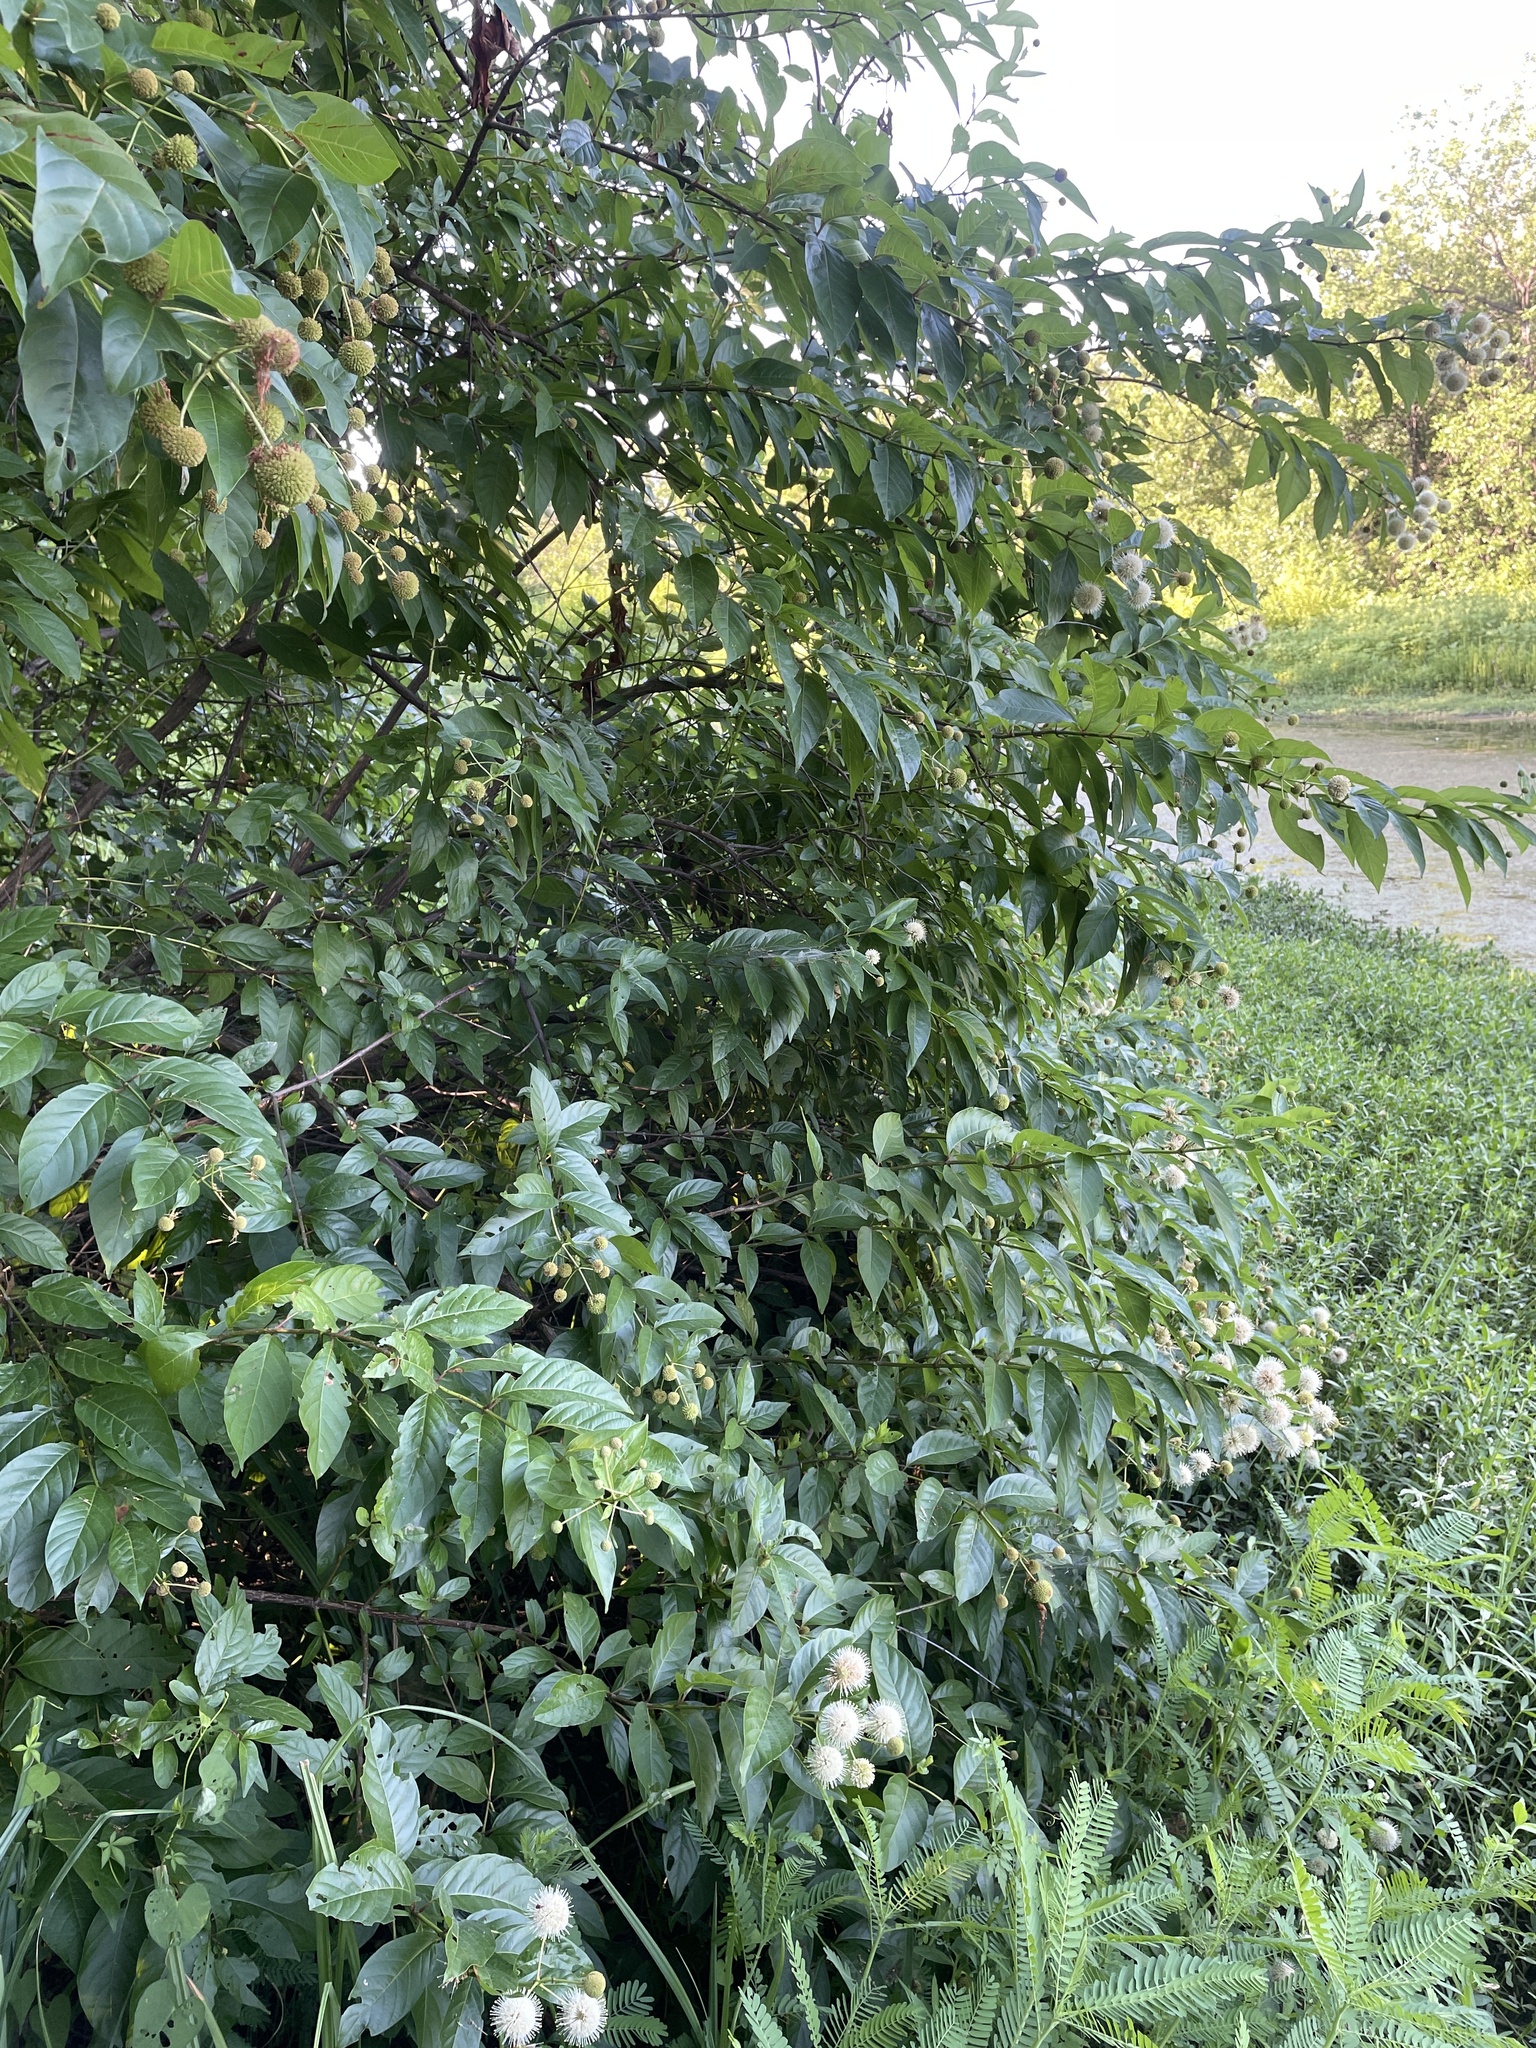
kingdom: Plantae
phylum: Tracheophyta
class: Magnoliopsida
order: Gentianales
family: Rubiaceae
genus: Cephalanthus
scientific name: Cephalanthus occidentalis
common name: Button-willow
